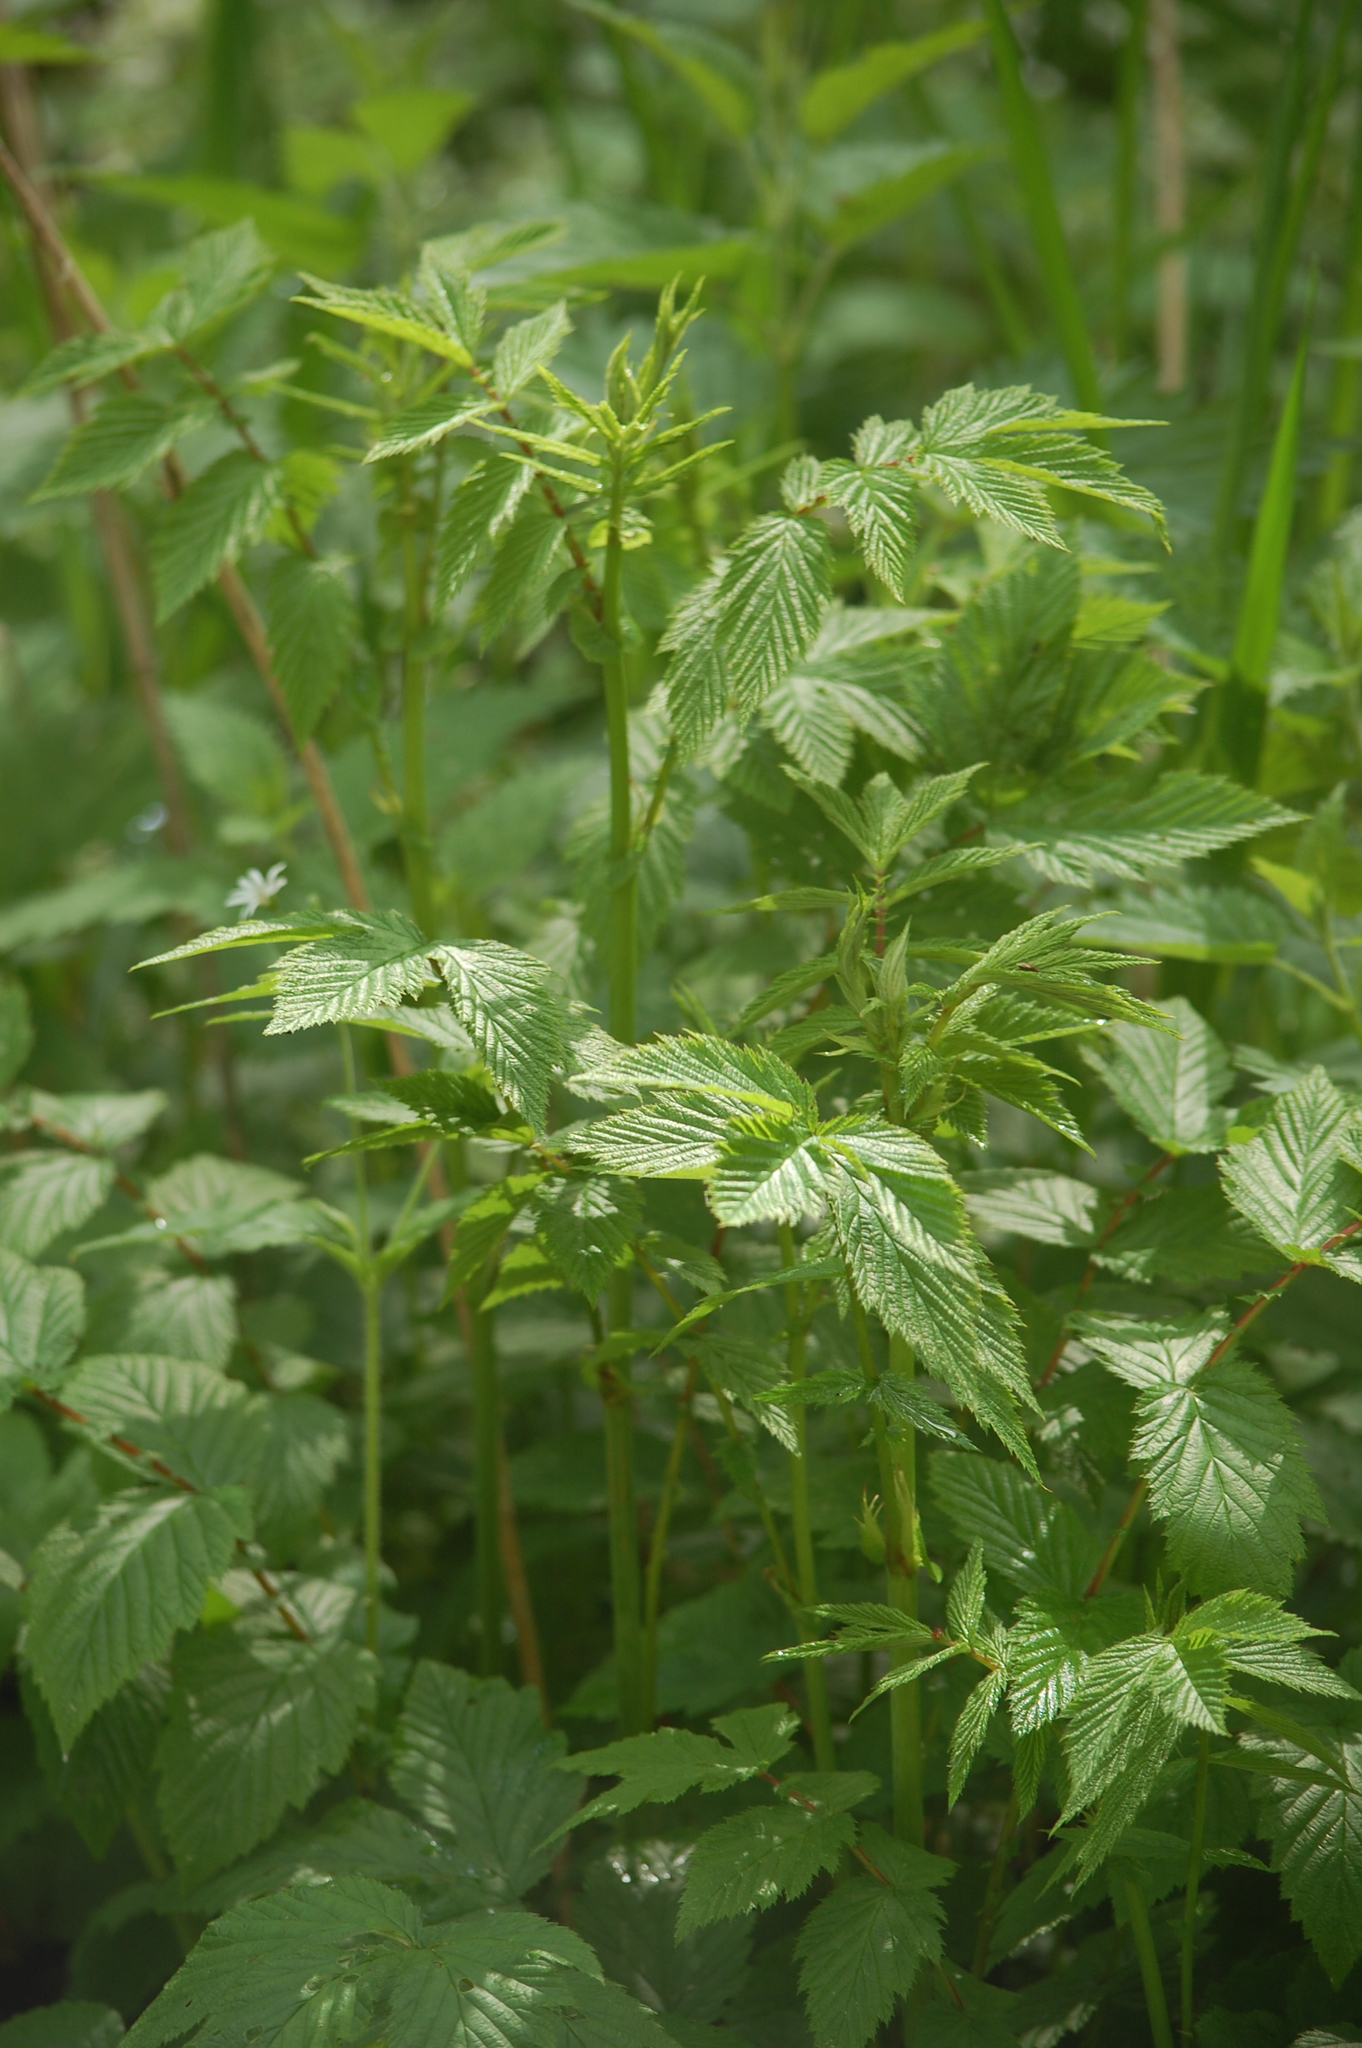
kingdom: Plantae
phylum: Tracheophyta
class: Magnoliopsida
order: Rosales
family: Rosaceae
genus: Filipendula
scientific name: Filipendula ulmaria
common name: Meadowsweet
